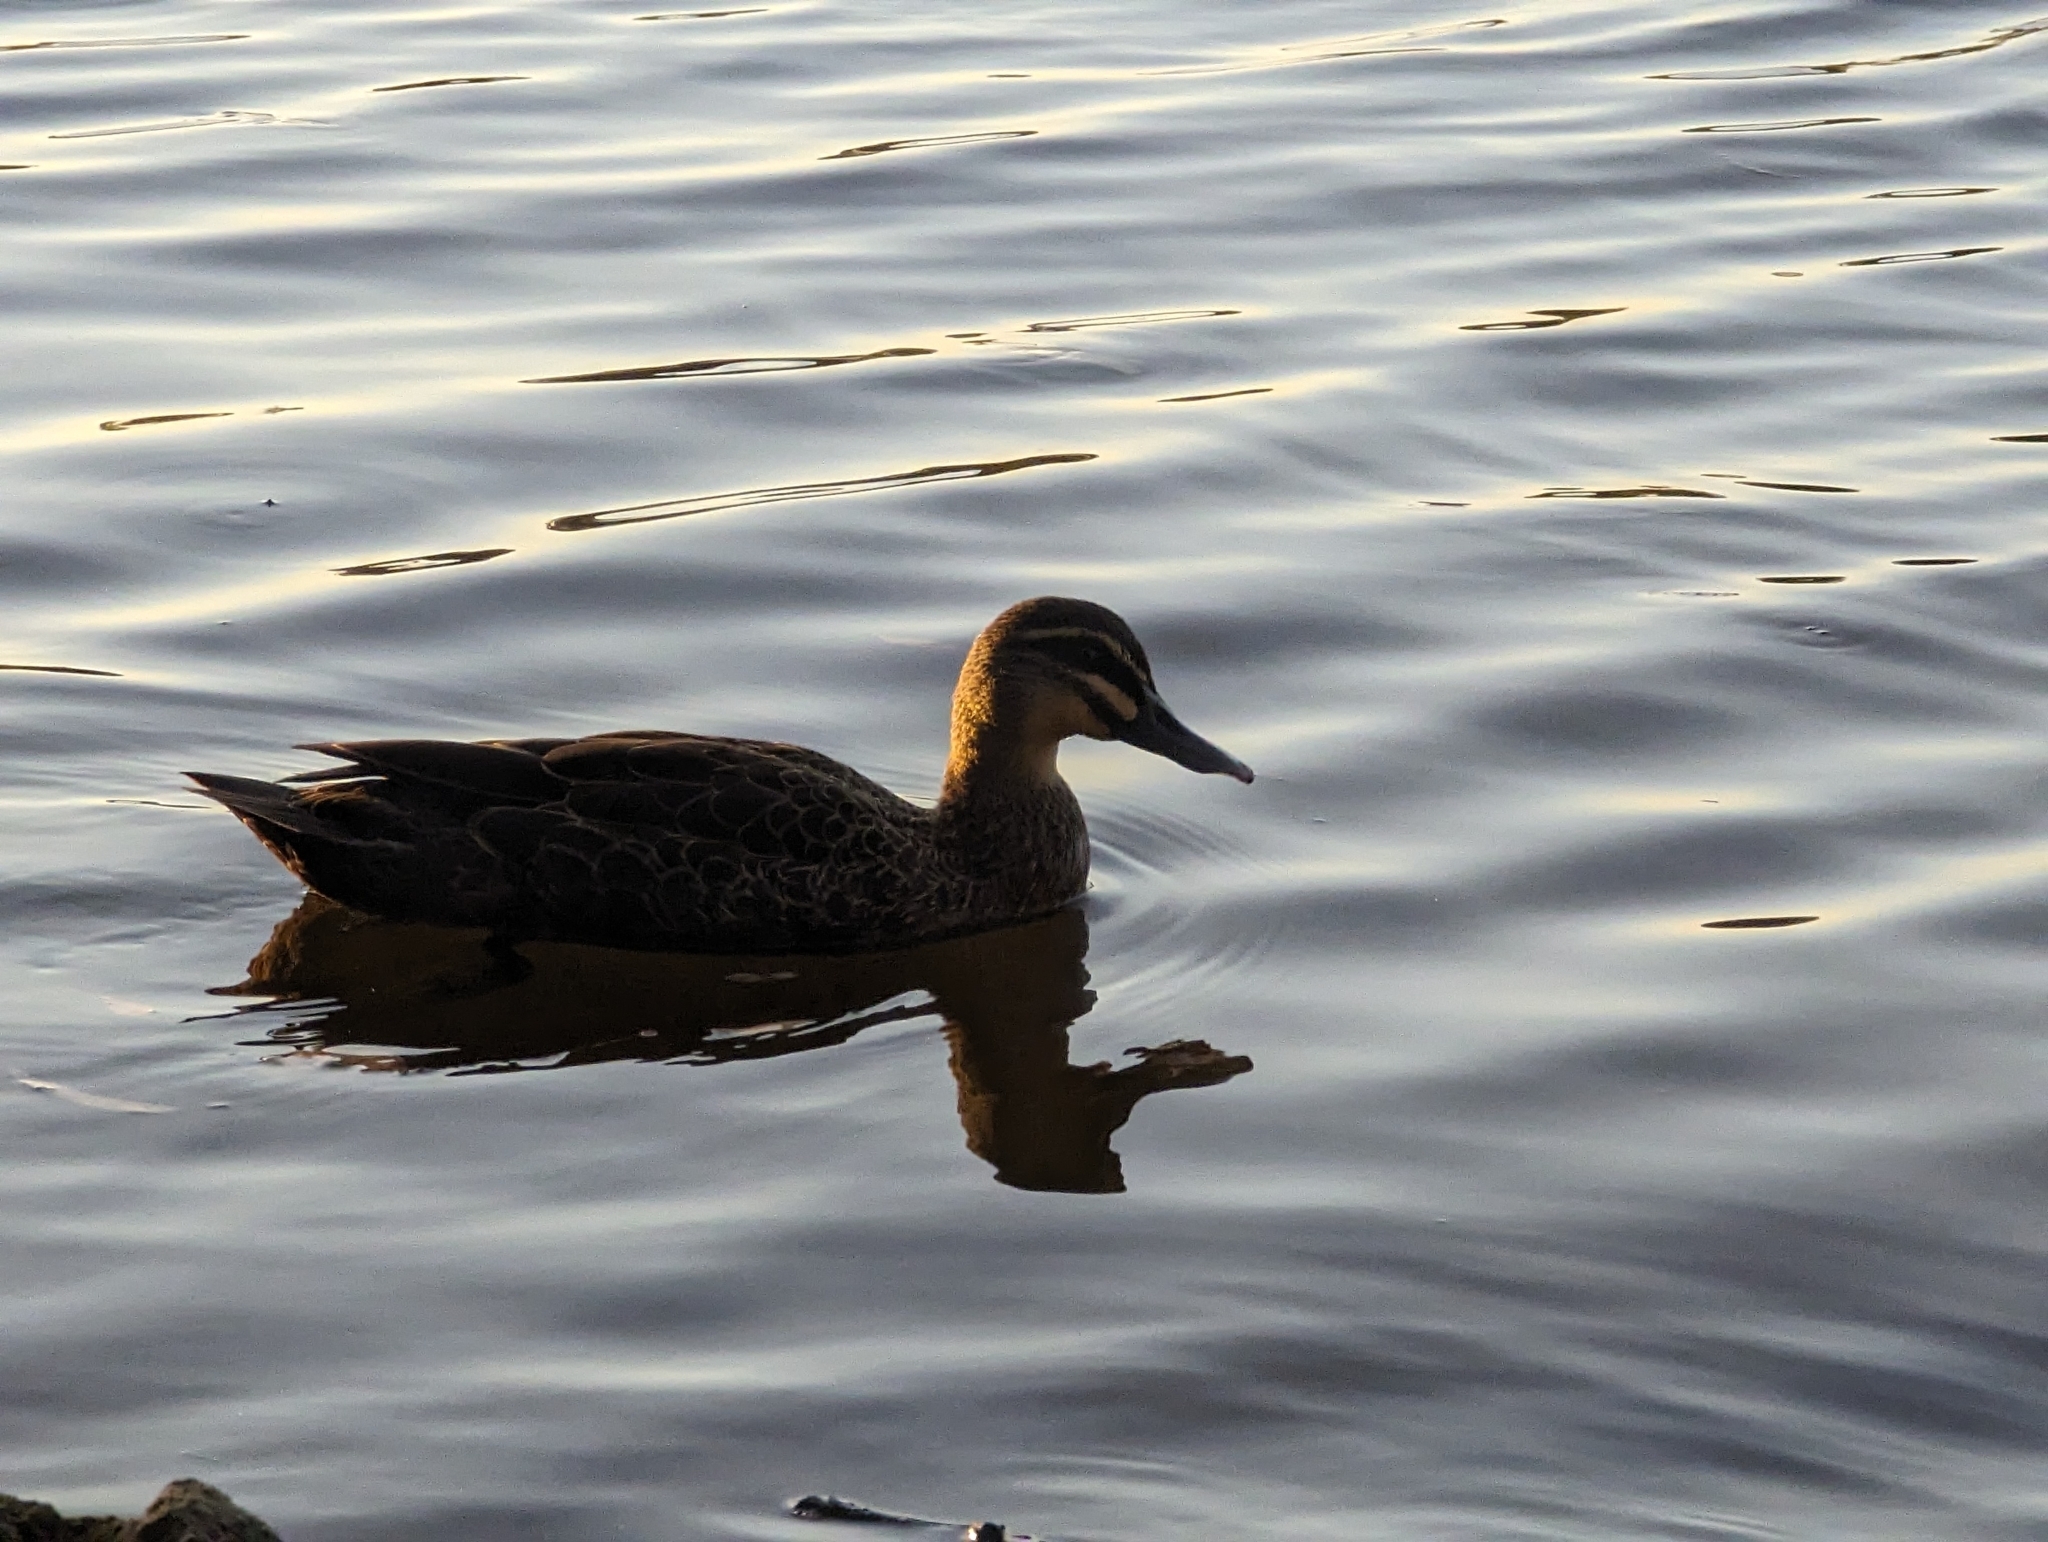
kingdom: Animalia
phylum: Chordata
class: Aves
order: Anseriformes
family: Anatidae
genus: Anas
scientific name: Anas superciliosa
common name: Pacific black duck
